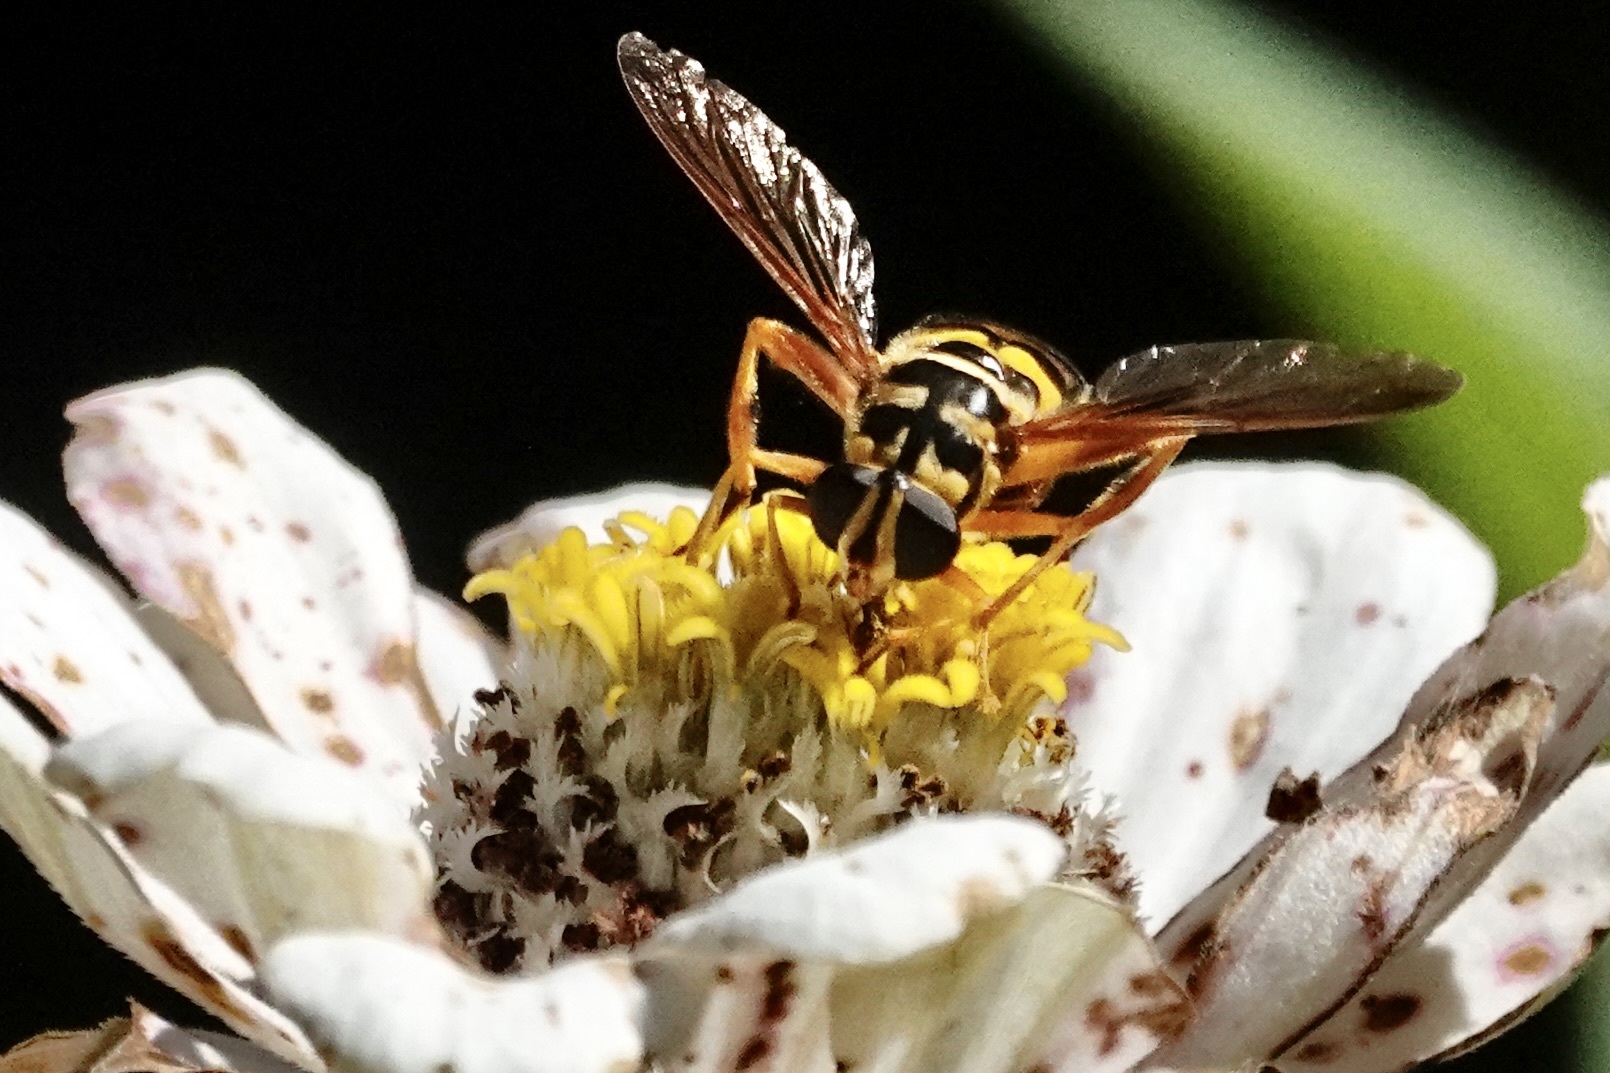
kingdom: Animalia
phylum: Arthropoda
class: Insecta
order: Diptera
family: Syrphidae
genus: Milesia
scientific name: Milesia virginiensis
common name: Virginia giant
